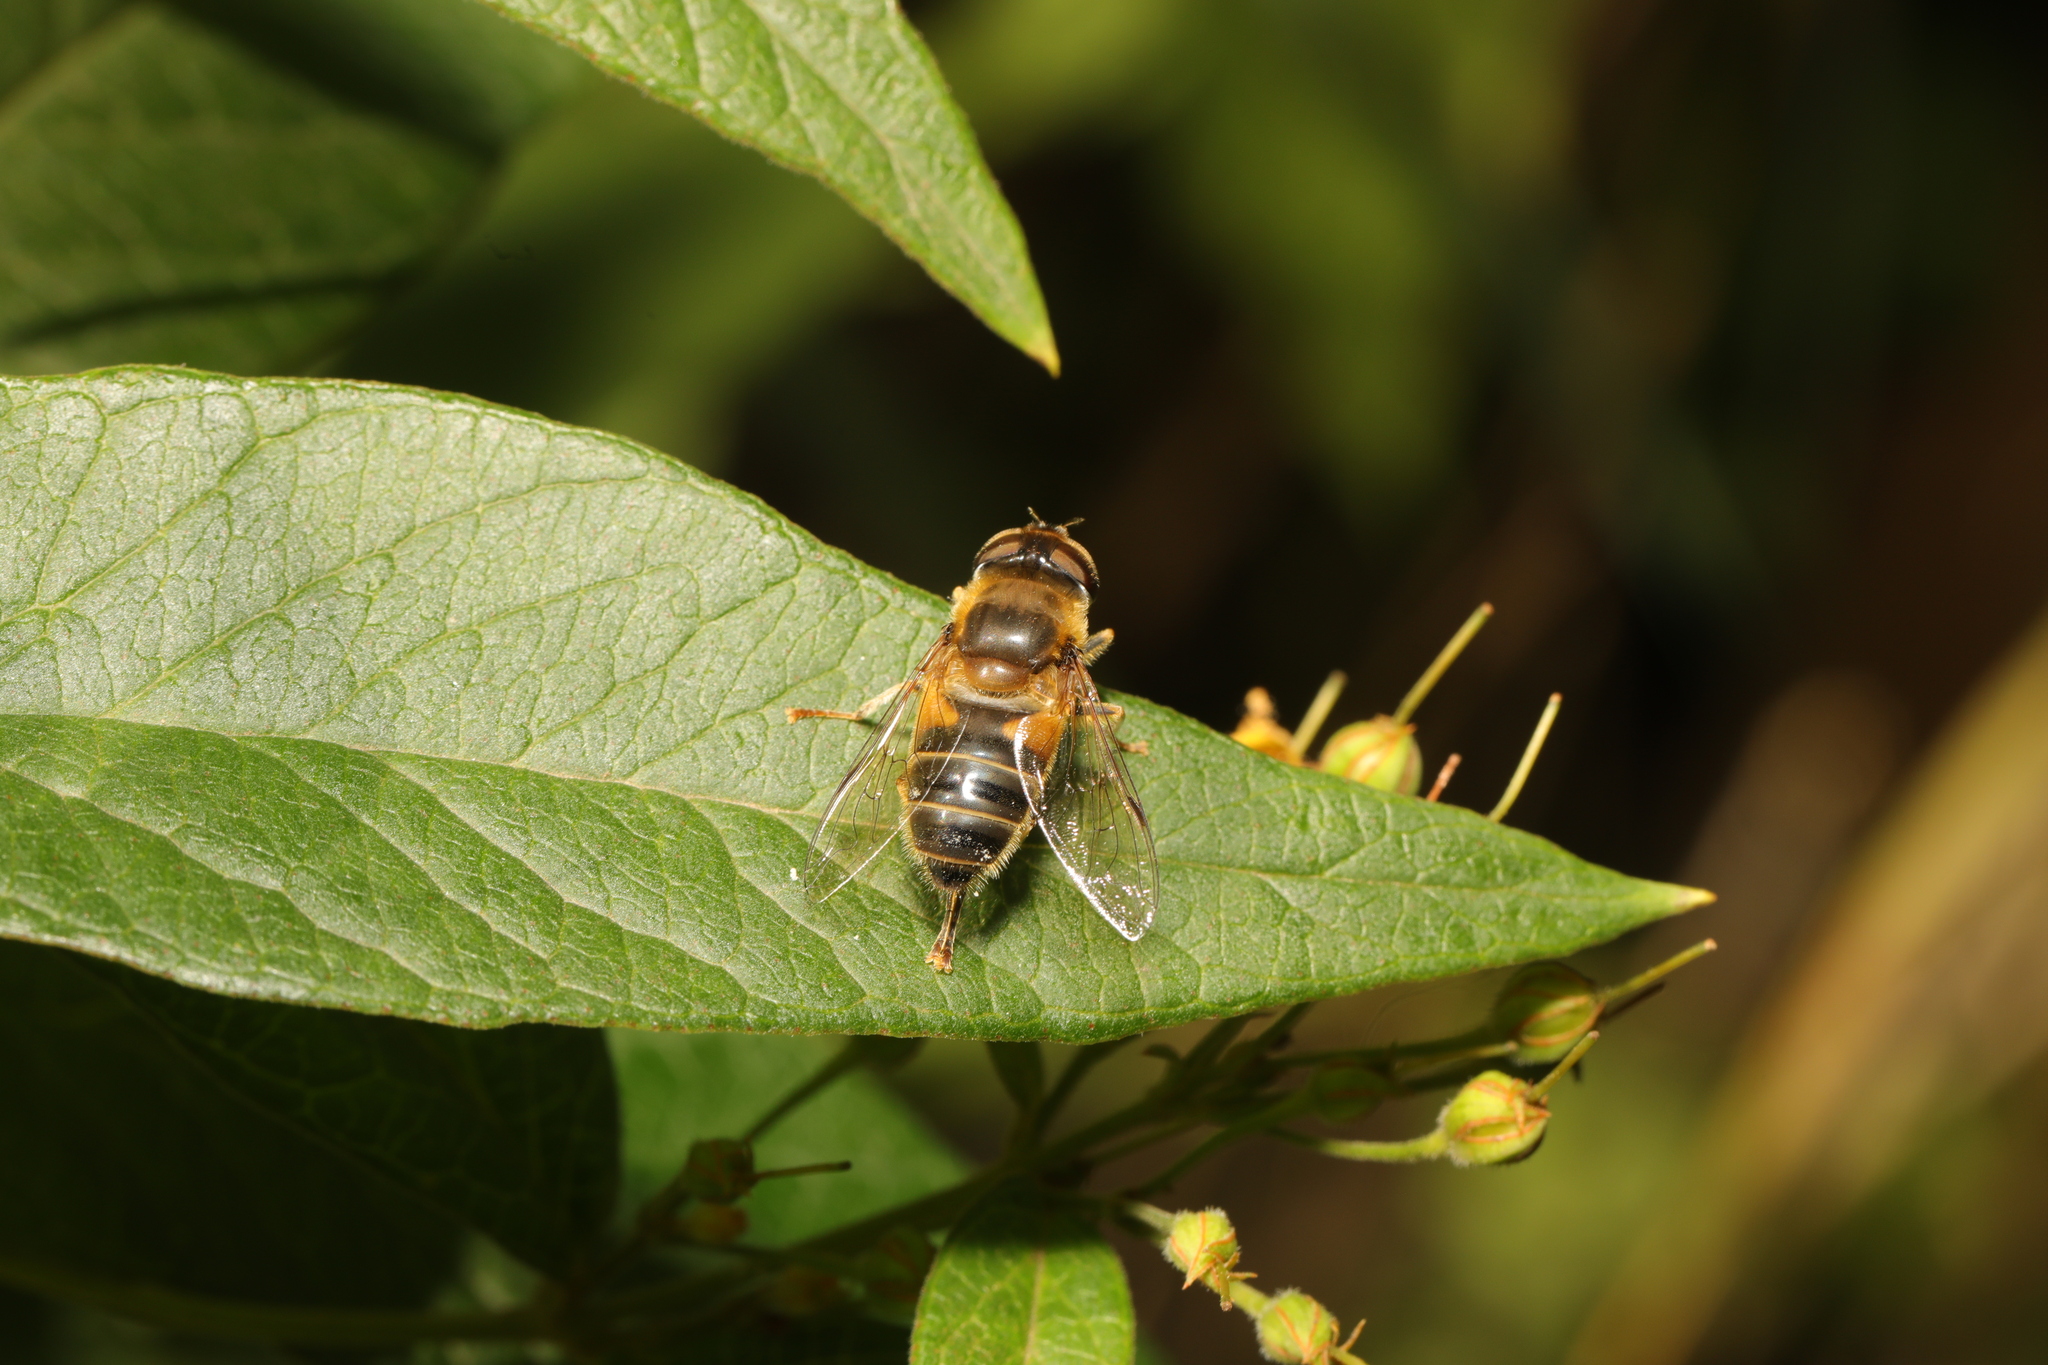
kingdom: Animalia
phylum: Arthropoda
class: Insecta
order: Diptera
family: Syrphidae
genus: Eristalis
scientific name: Eristalis pertinax
